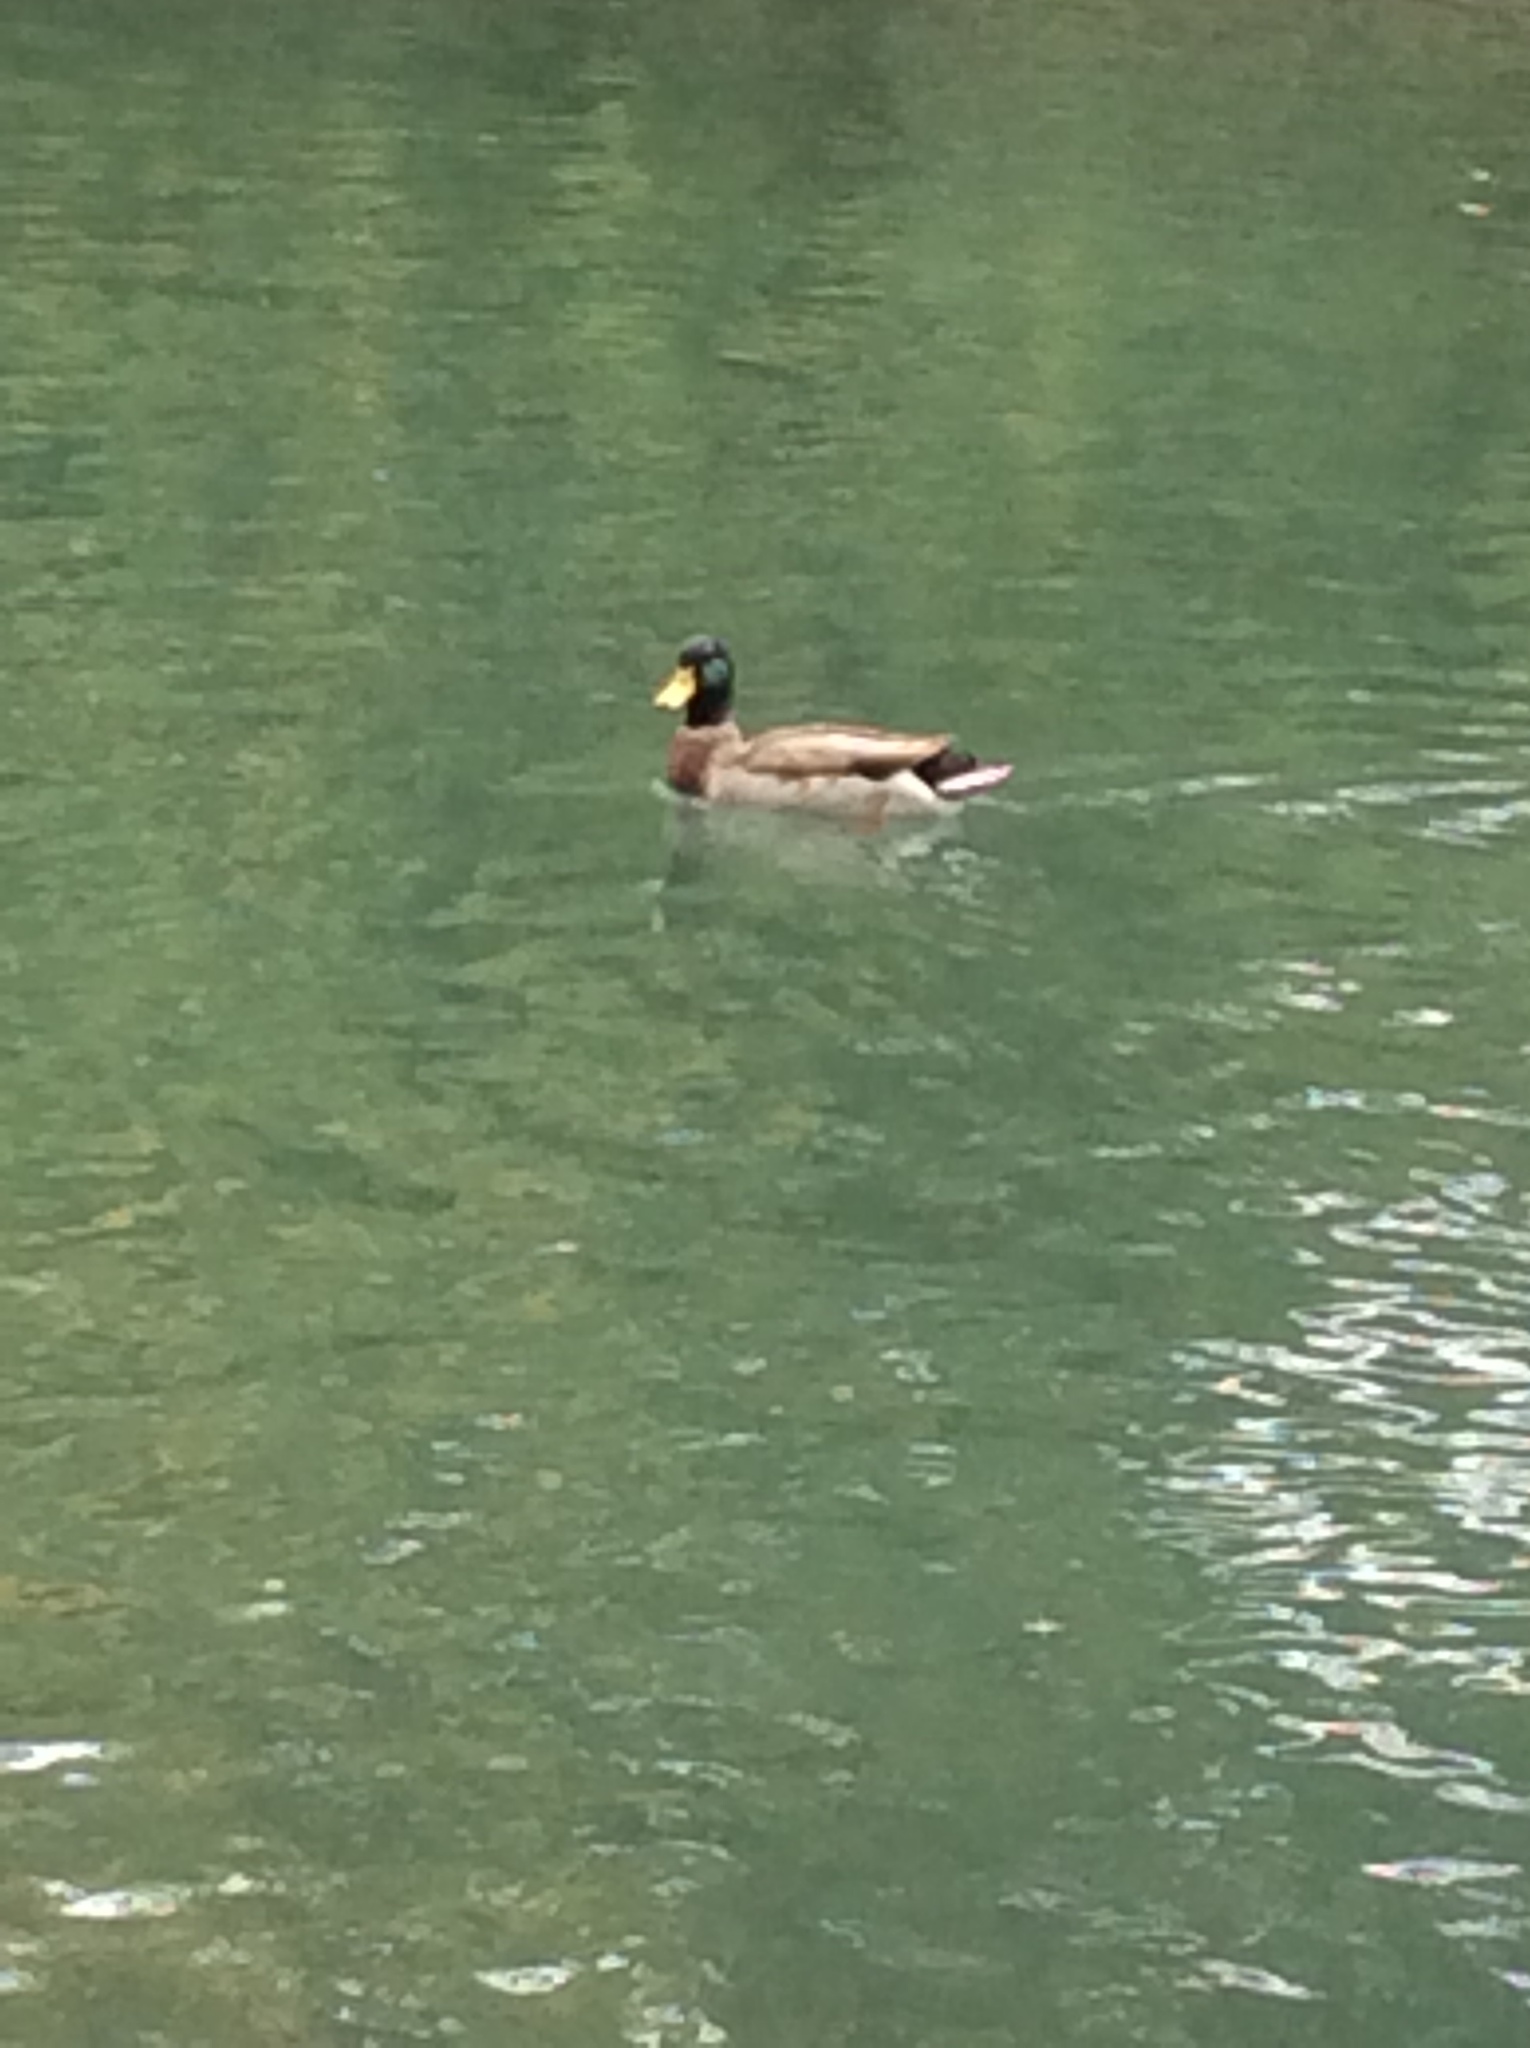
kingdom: Animalia
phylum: Chordata
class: Aves
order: Anseriformes
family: Anatidae
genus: Anas
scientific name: Anas platyrhynchos
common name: Mallard
